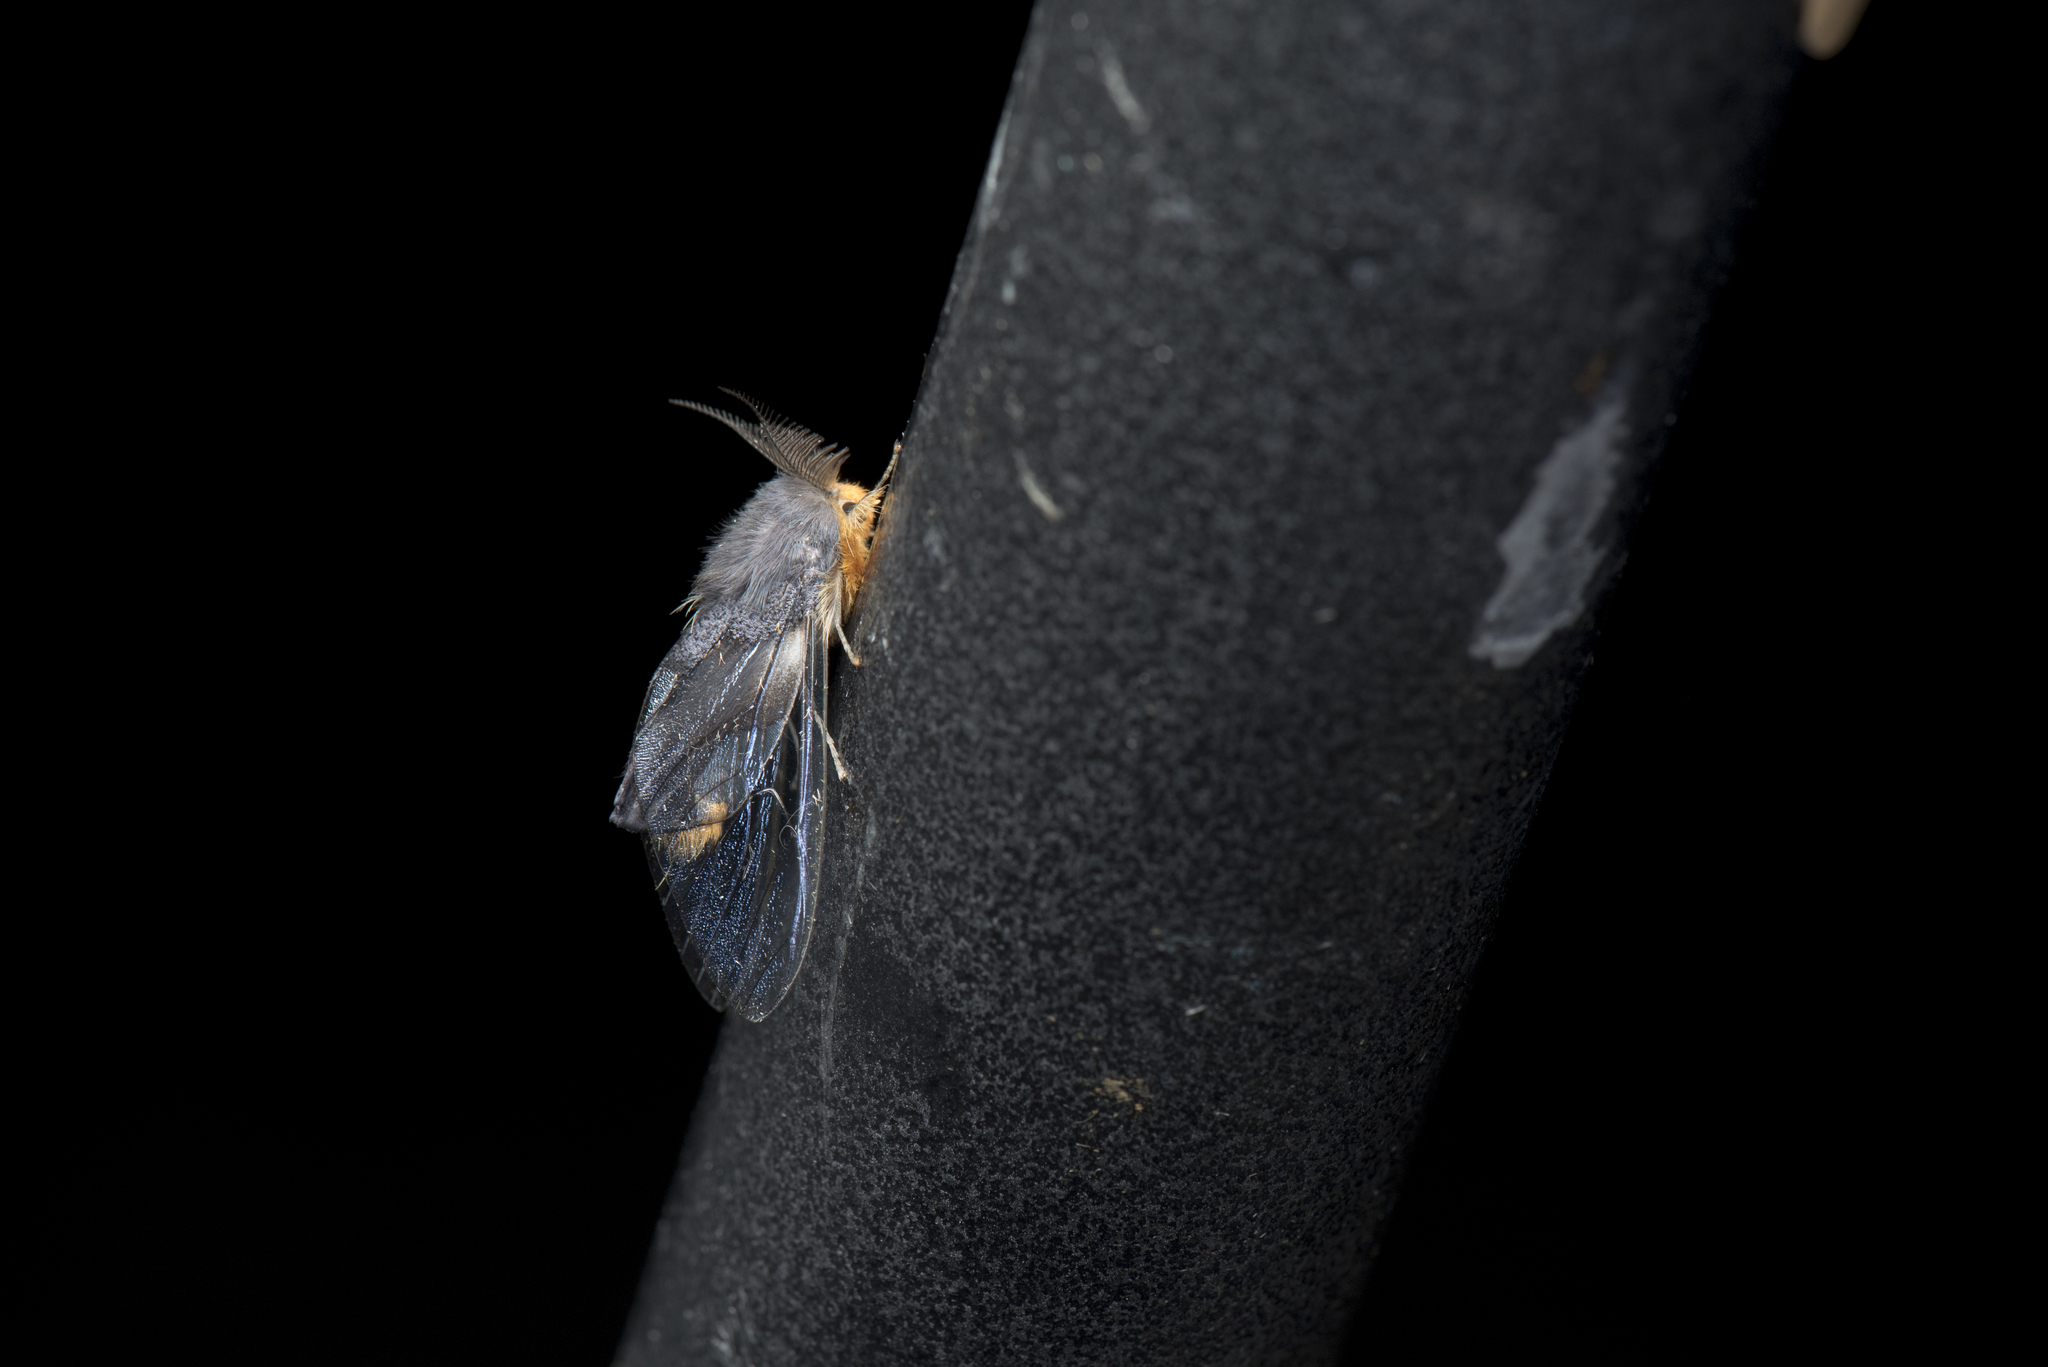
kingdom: Animalia
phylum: Arthropoda
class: Insecta
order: Lepidoptera
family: Erebidae
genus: Perina
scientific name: Perina nuda
